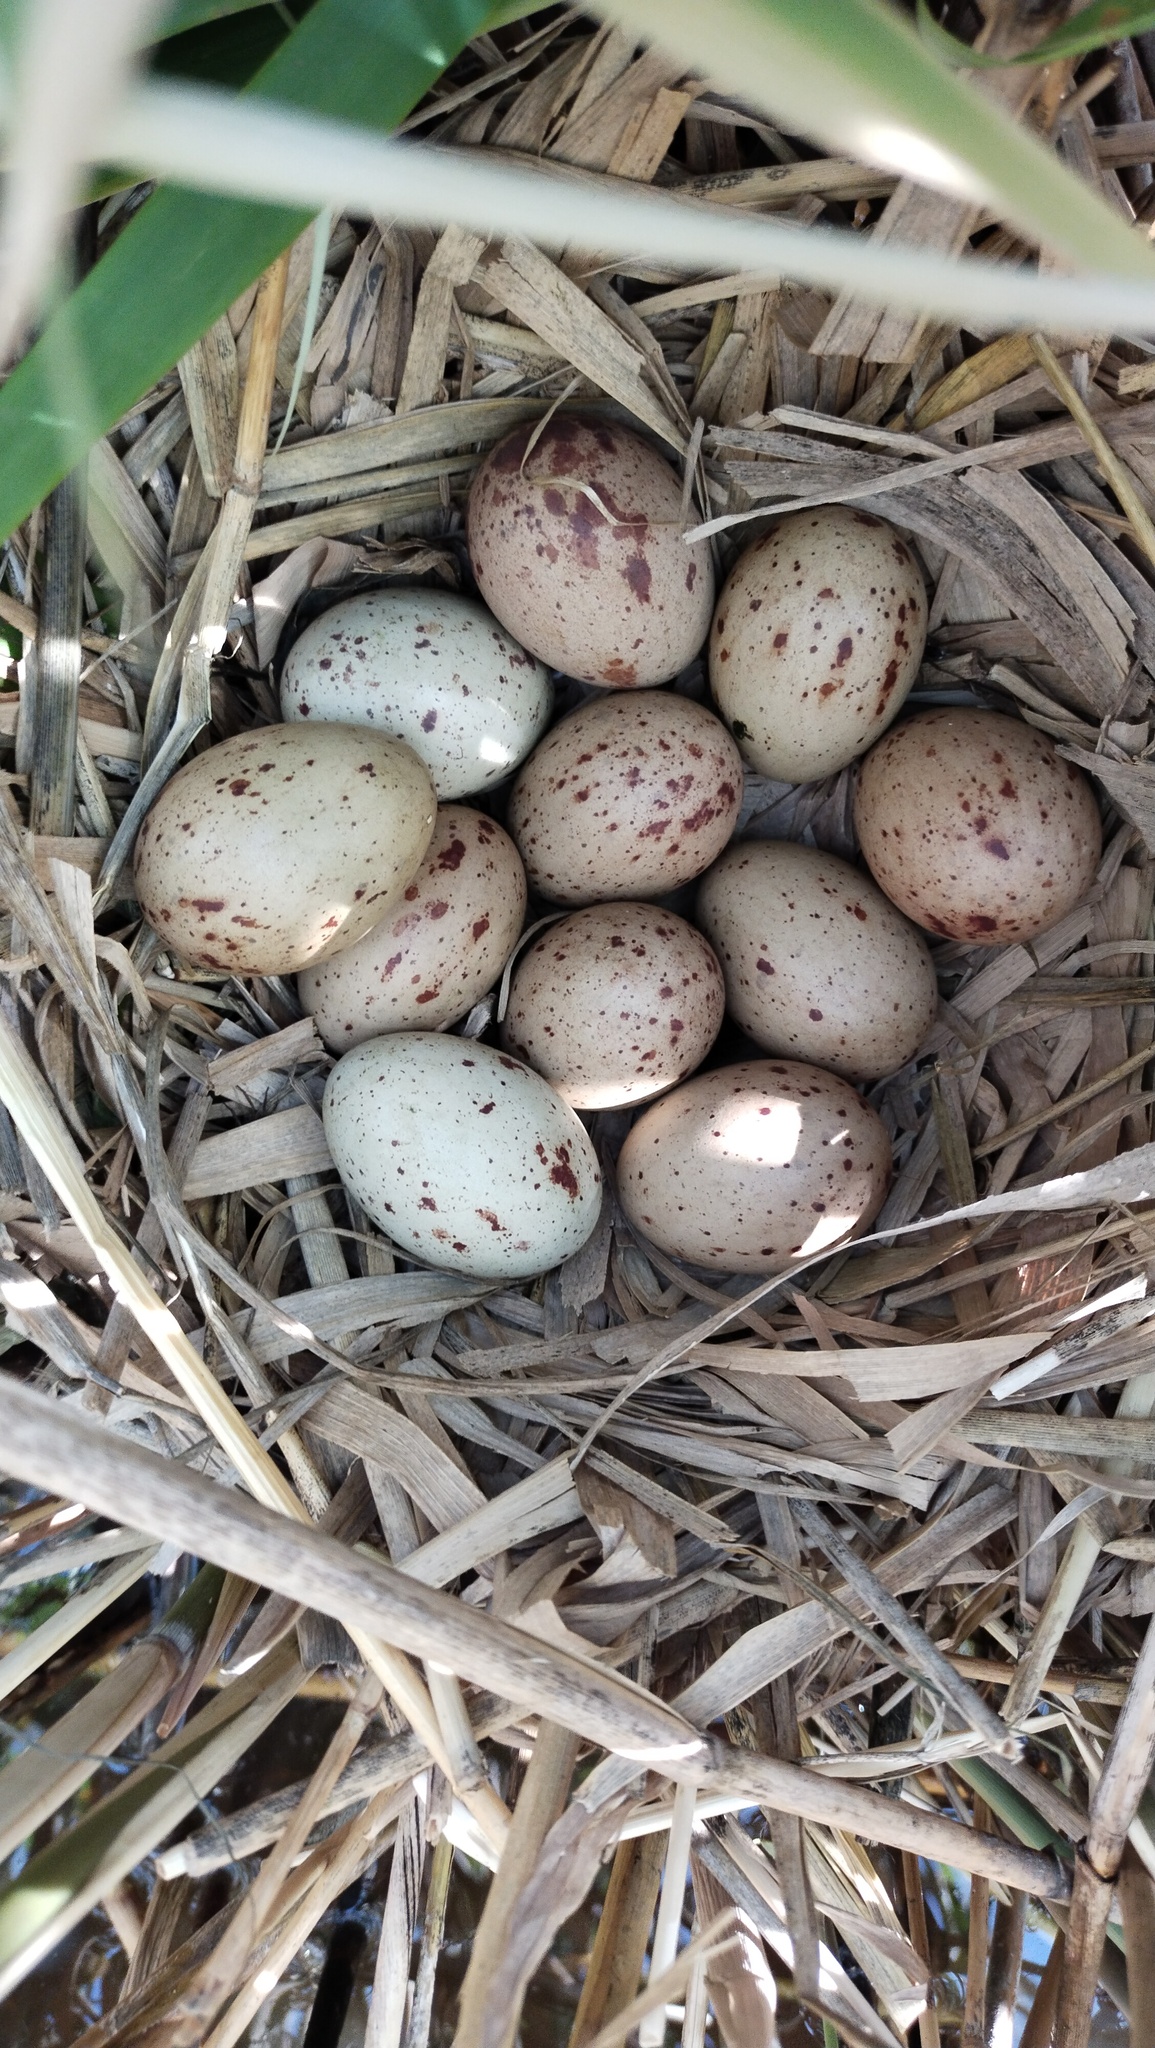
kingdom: Animalia
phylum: Chordata
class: Aves
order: Gruiformes
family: Rallidae
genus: Gallinula
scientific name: Gallinula chloropus
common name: Common moorhen
